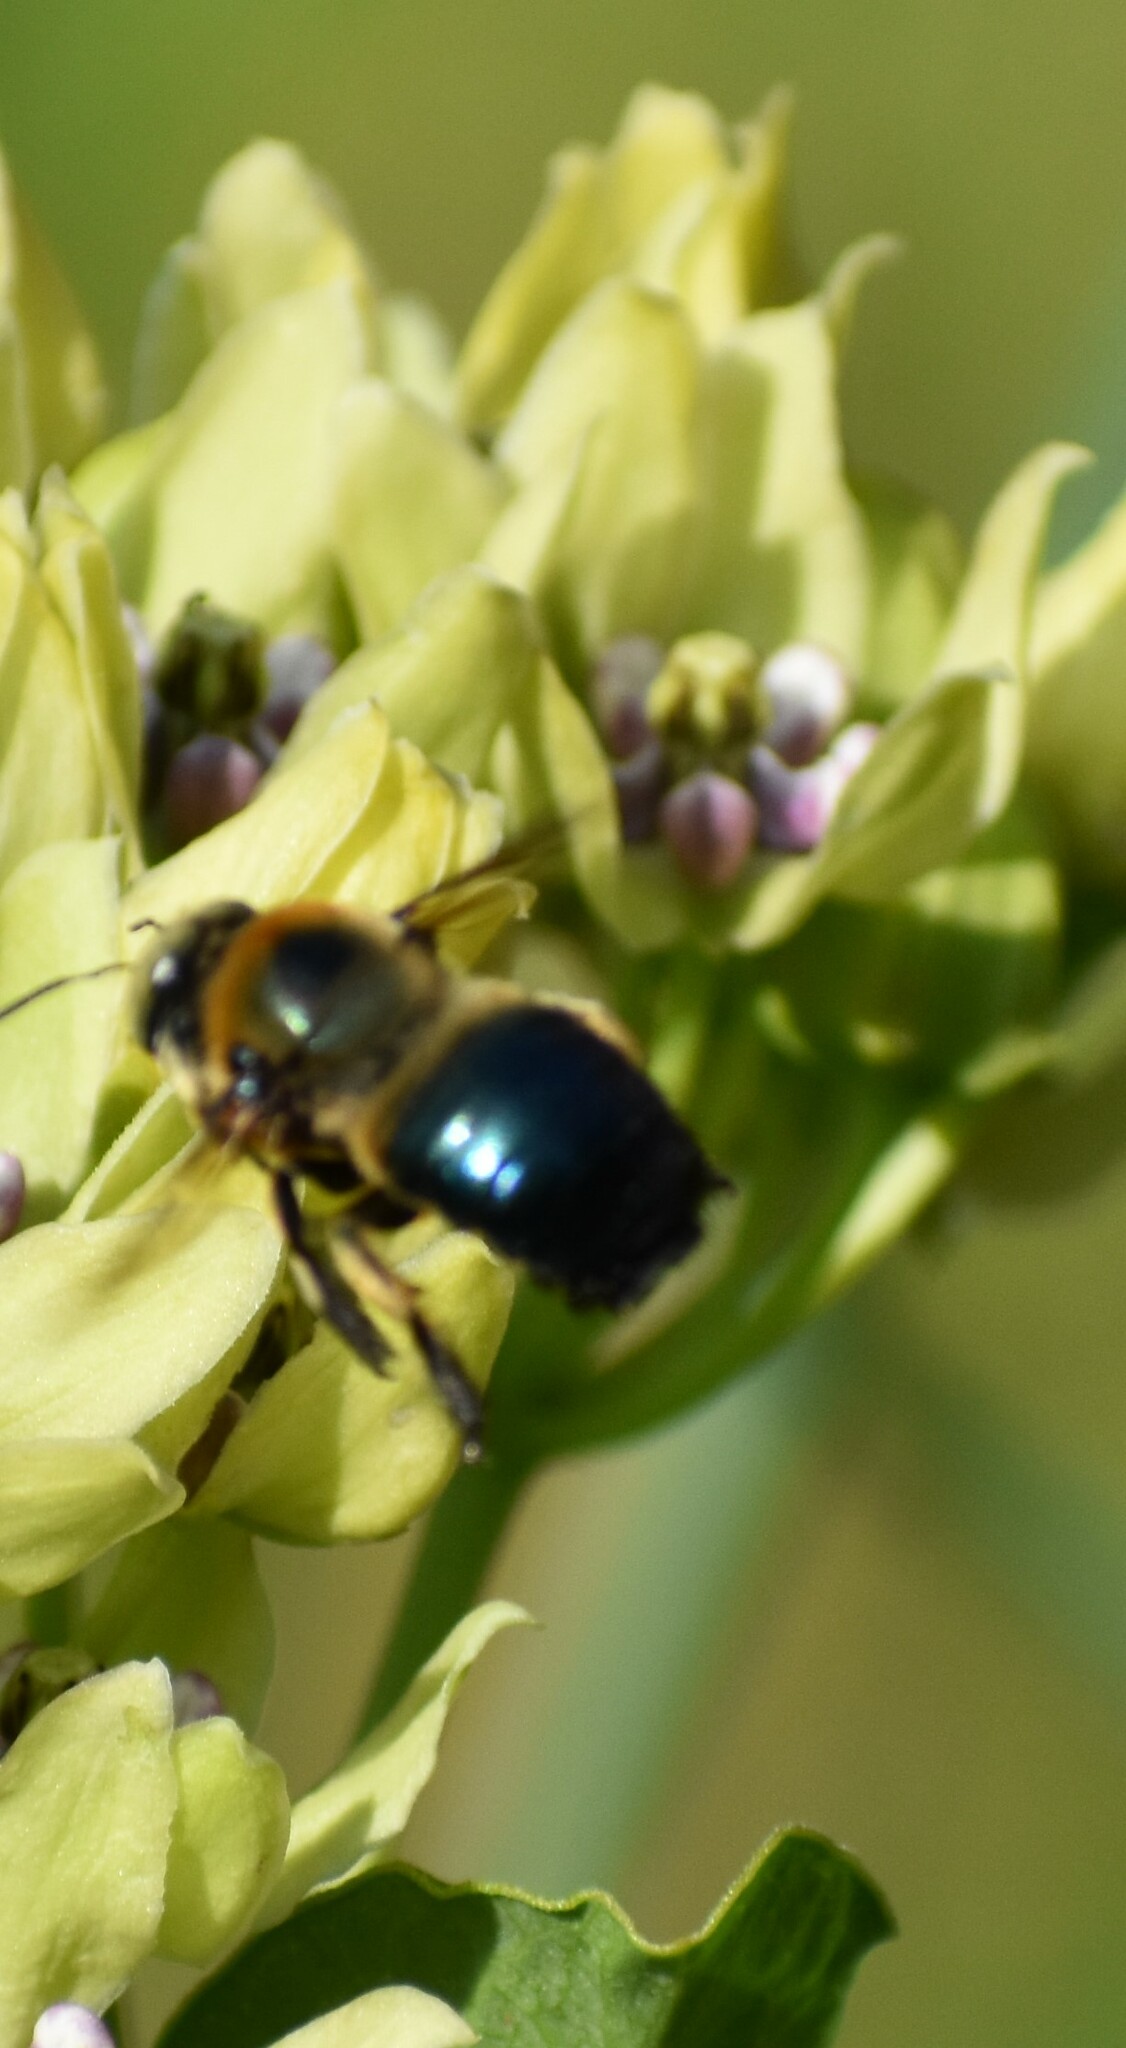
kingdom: Animalia
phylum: Arthropoda
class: Insecta
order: Hymenoptera
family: Apidae
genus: Xylocopa
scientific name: Xylocopa micans
